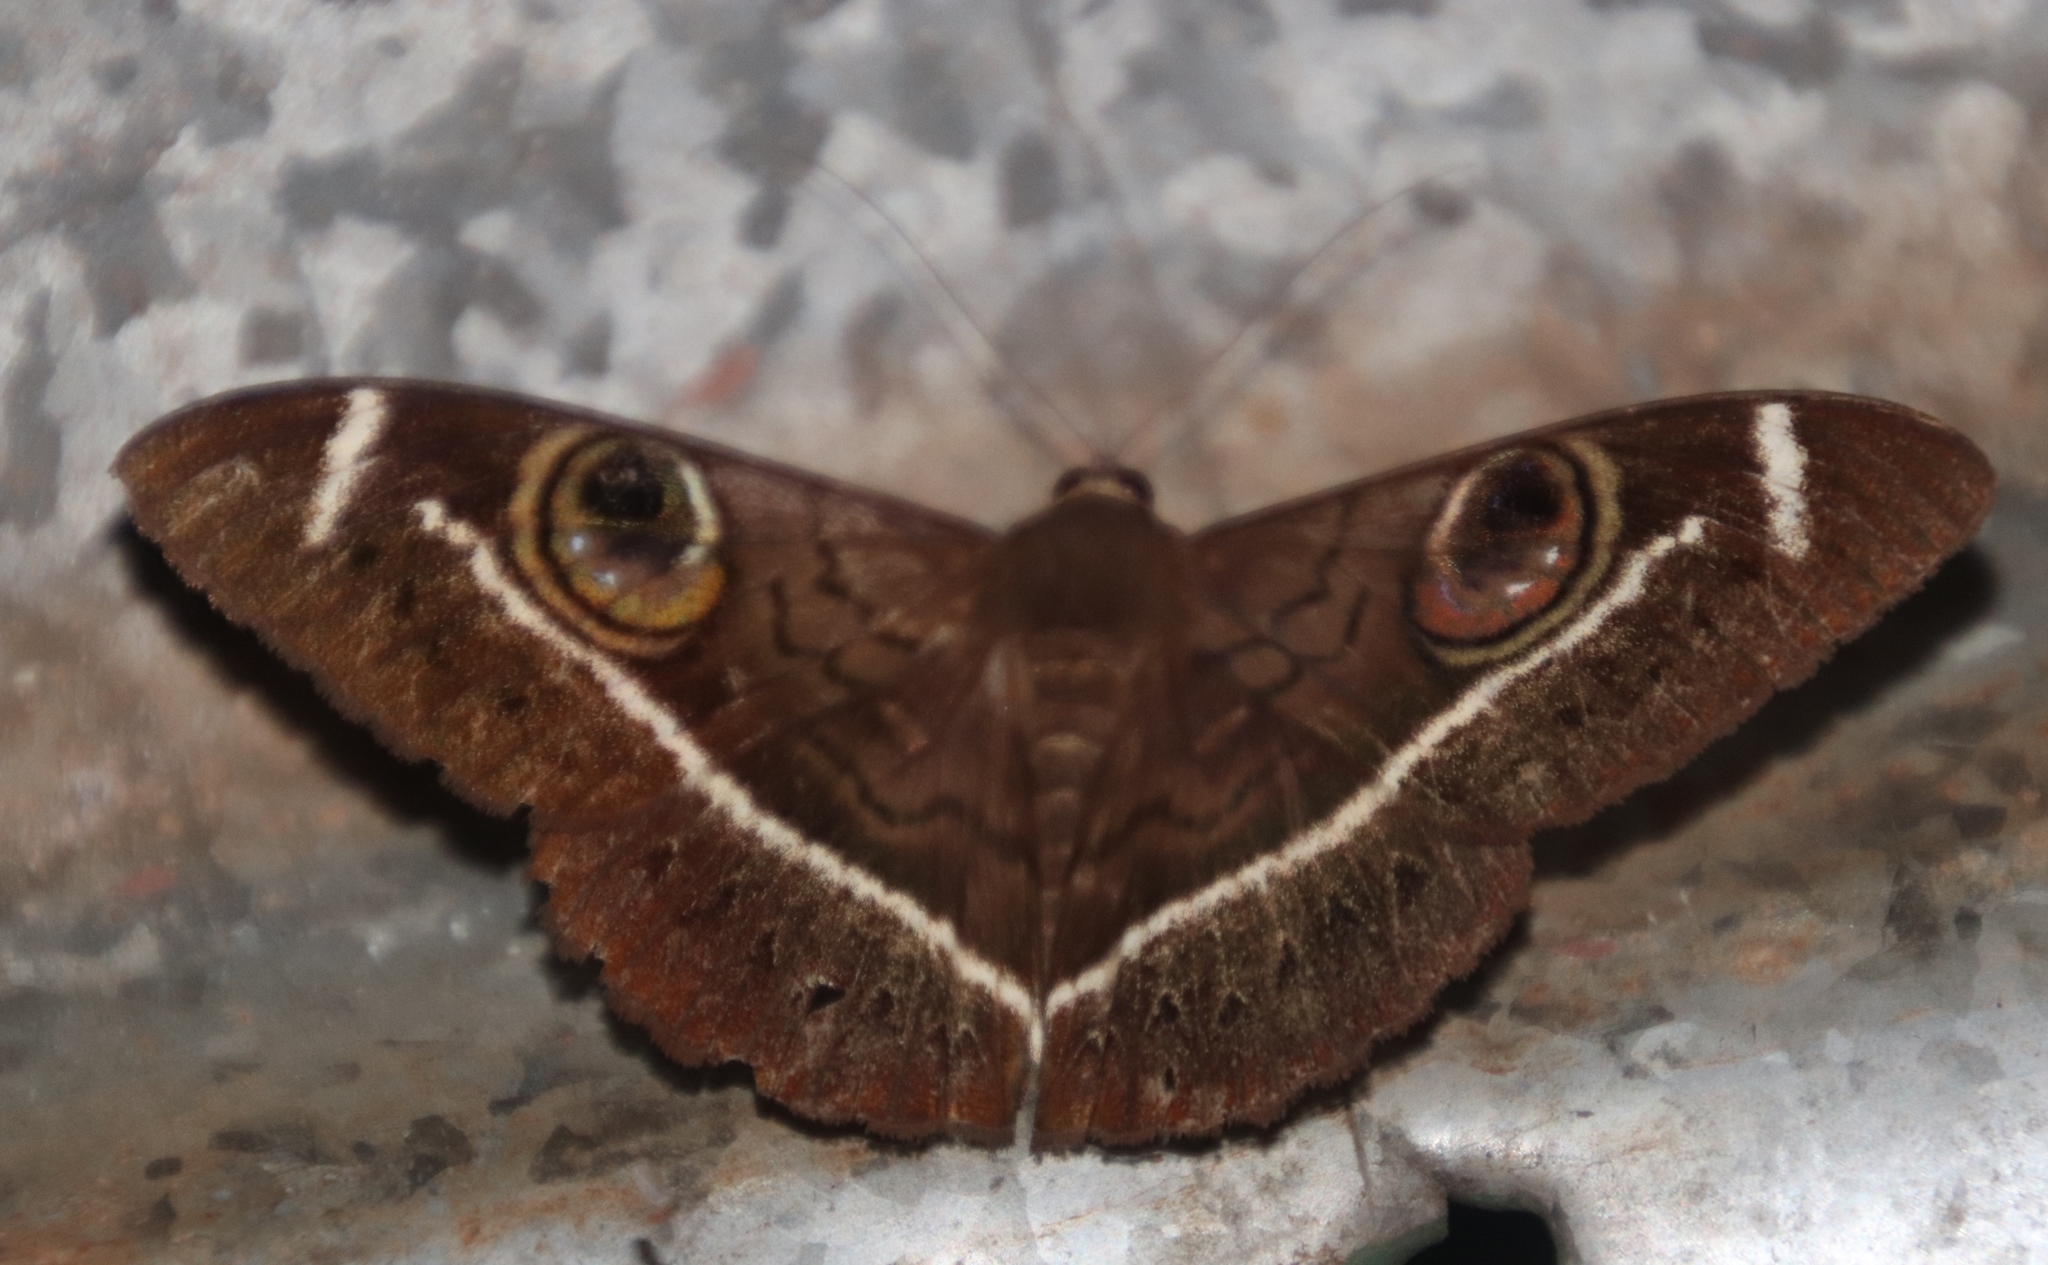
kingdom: Animalia
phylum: Arthropoda
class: Insecta
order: Lepidoptera
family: Erebidae
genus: Cyligramma
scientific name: Cyligramma latona
